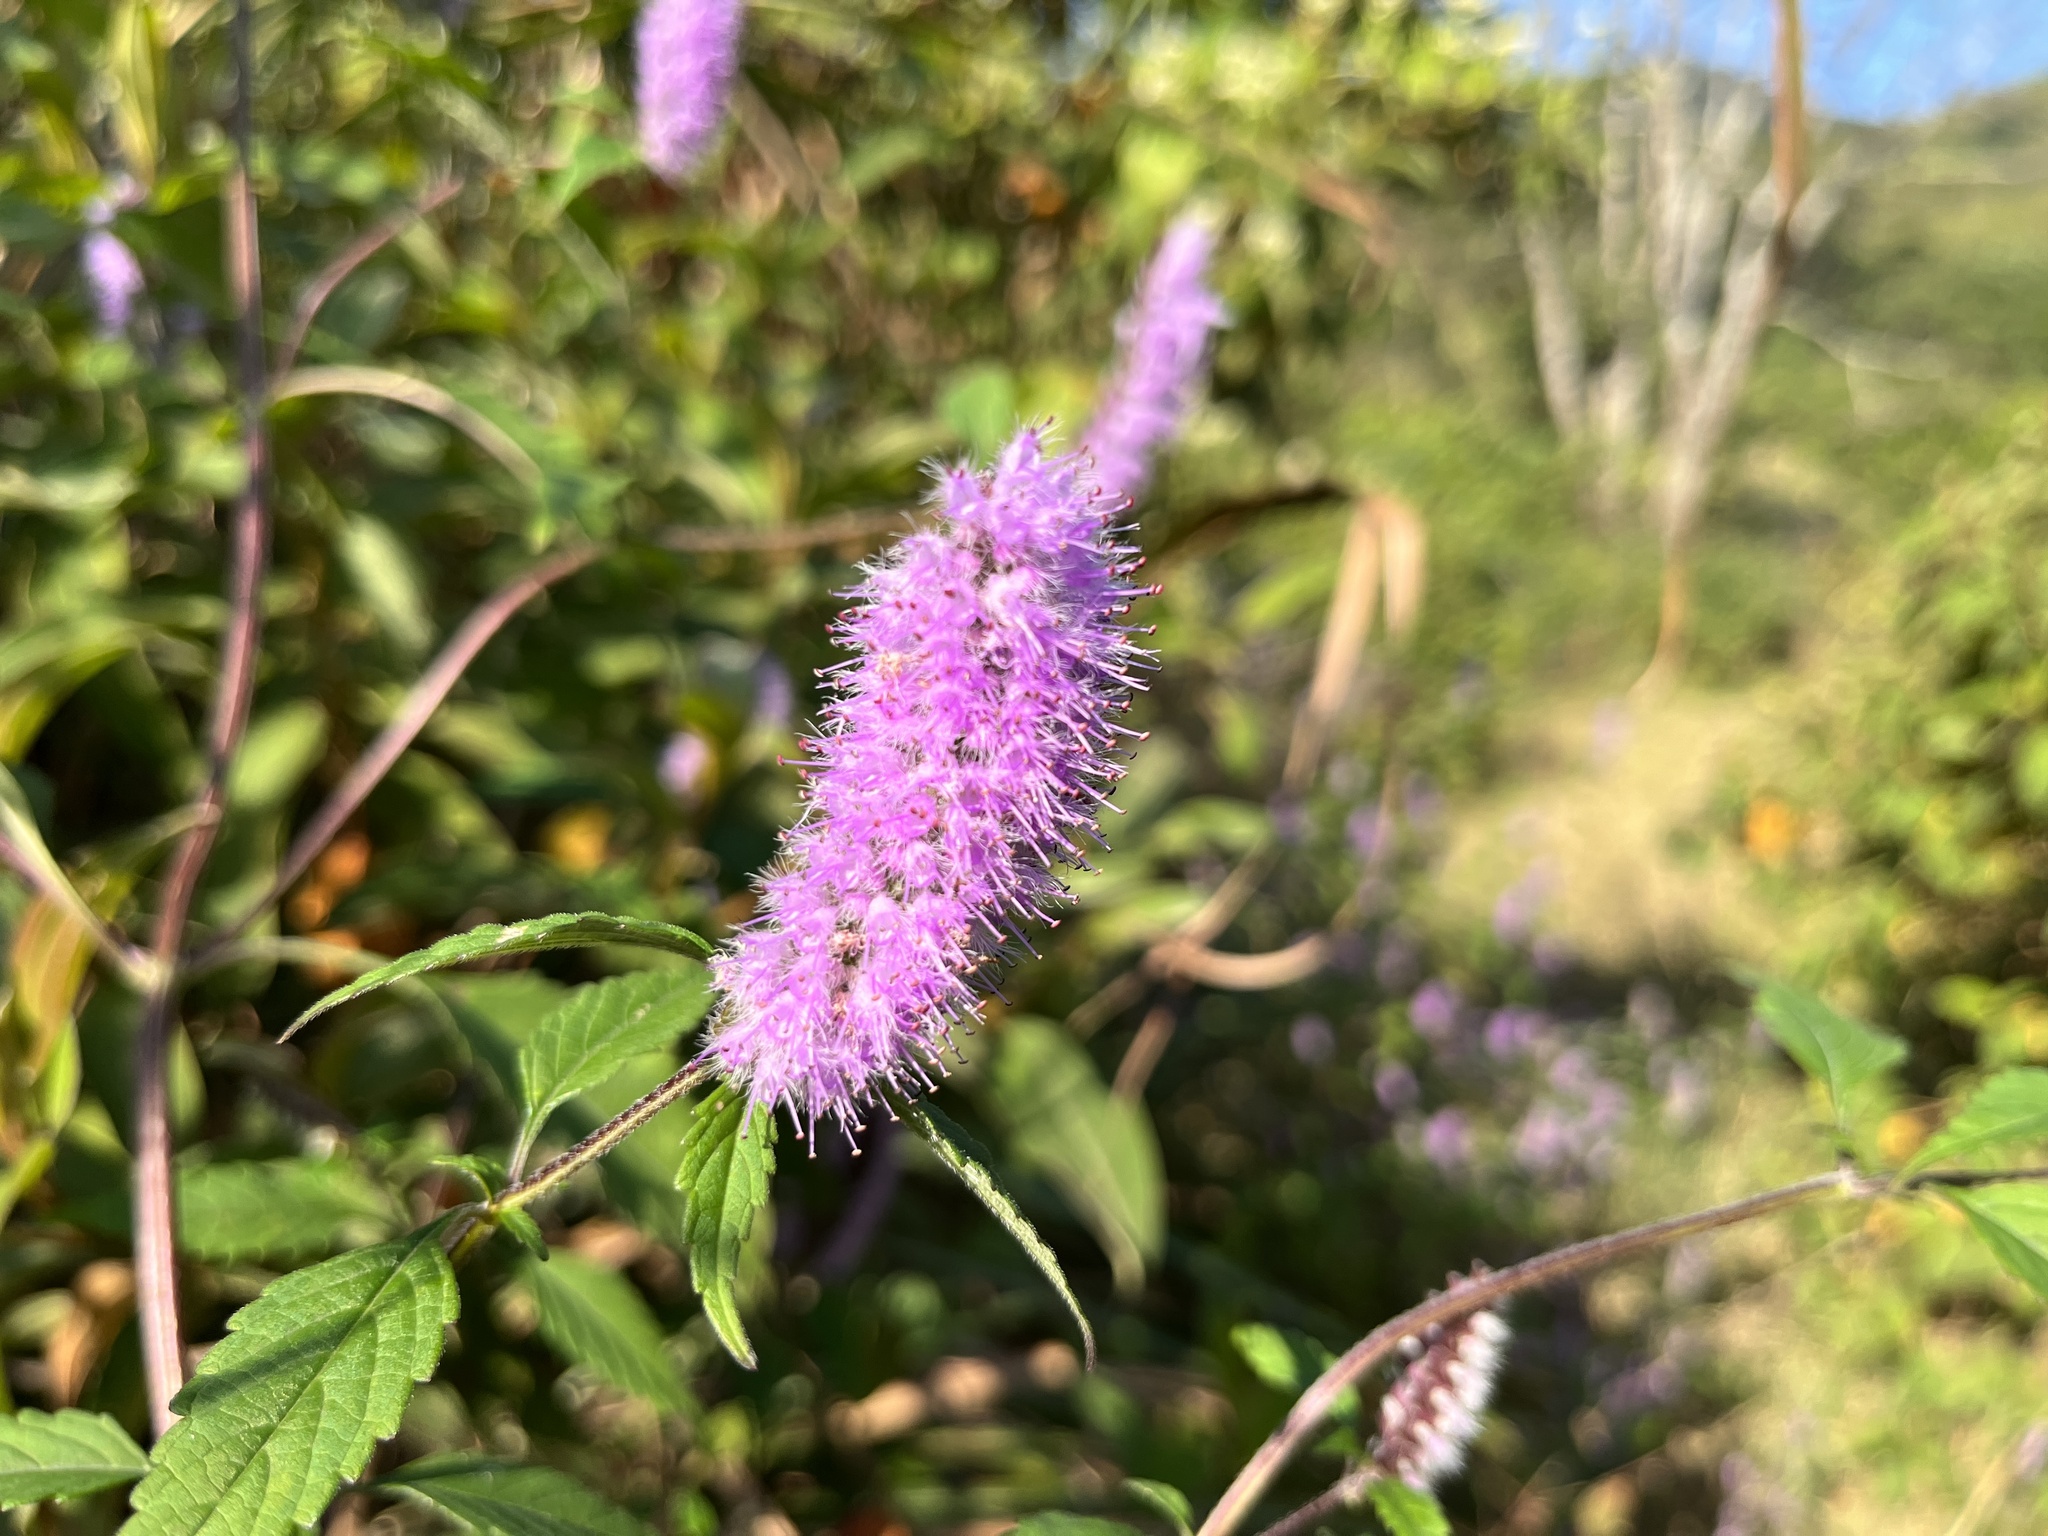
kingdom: Plantae
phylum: Tracheophyta
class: Magnoliopsida
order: Lamiales
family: Lamiaceae
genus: Elsholtzia
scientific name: Elsholtzia argyi
